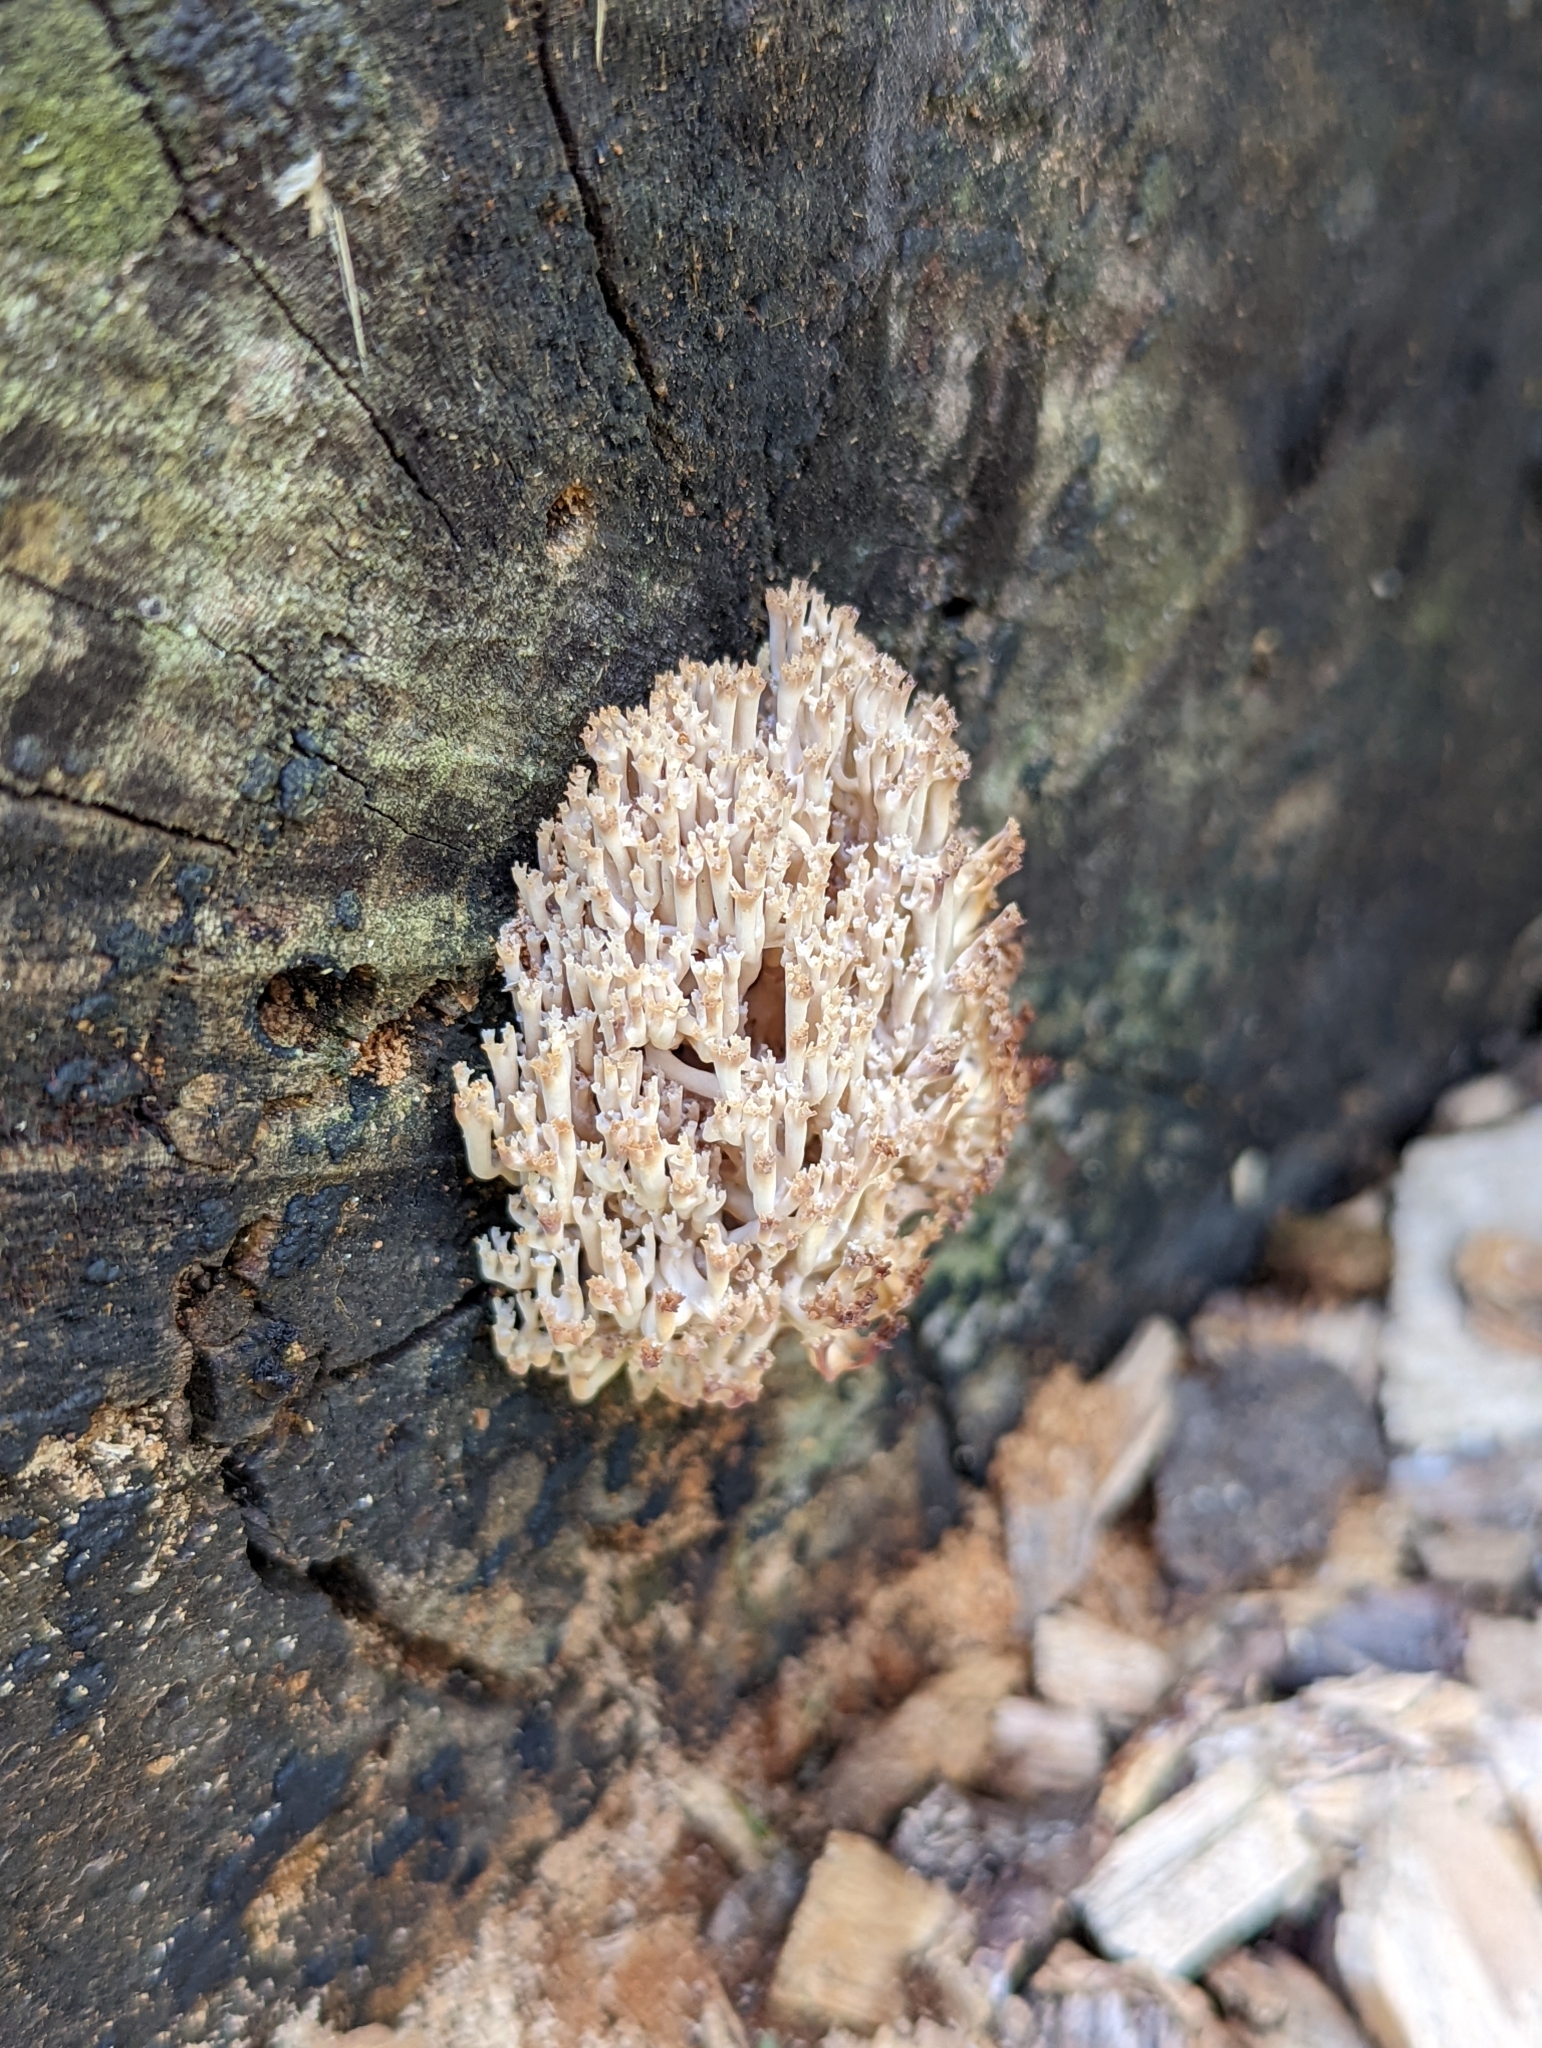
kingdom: Fungi
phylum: Basidiomycota
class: Agaricomycetes
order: Russulales
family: Auriscalpiaceae
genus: Artomyces
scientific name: Artomyces pyxidatus
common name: Crown-tipped coral fungus
